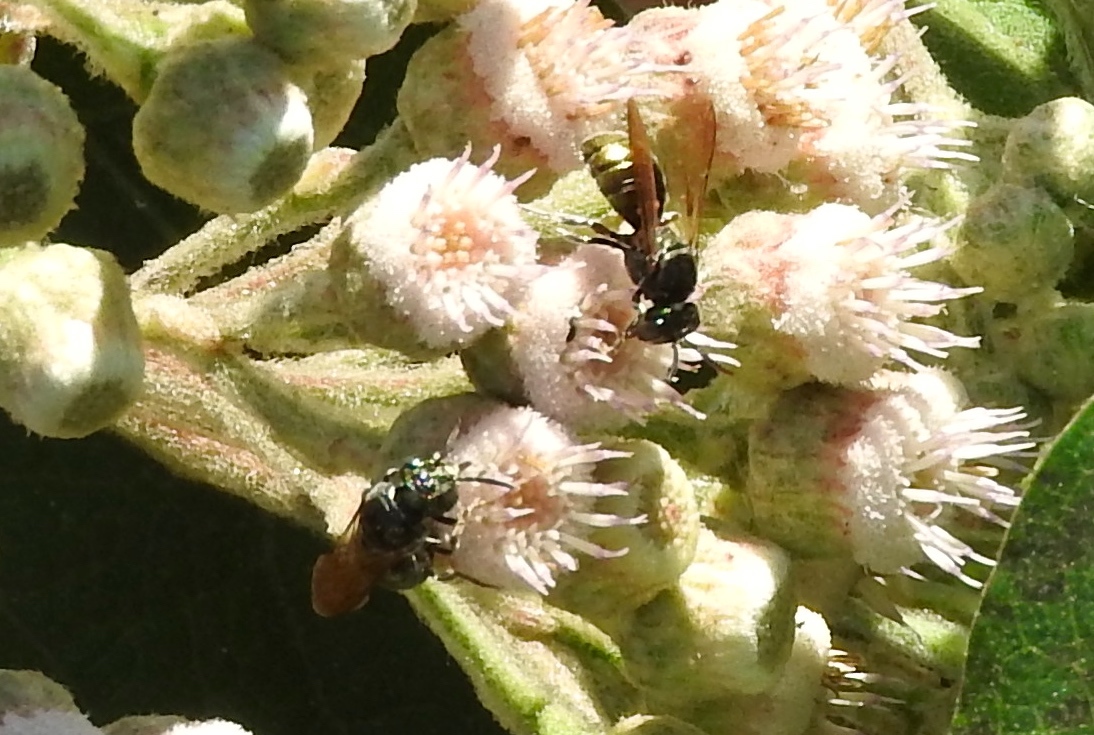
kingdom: Animalia
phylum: Arthropoda
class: Insecta
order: Hymenoptera
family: Apidae
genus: Ceratina
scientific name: Ceratina
